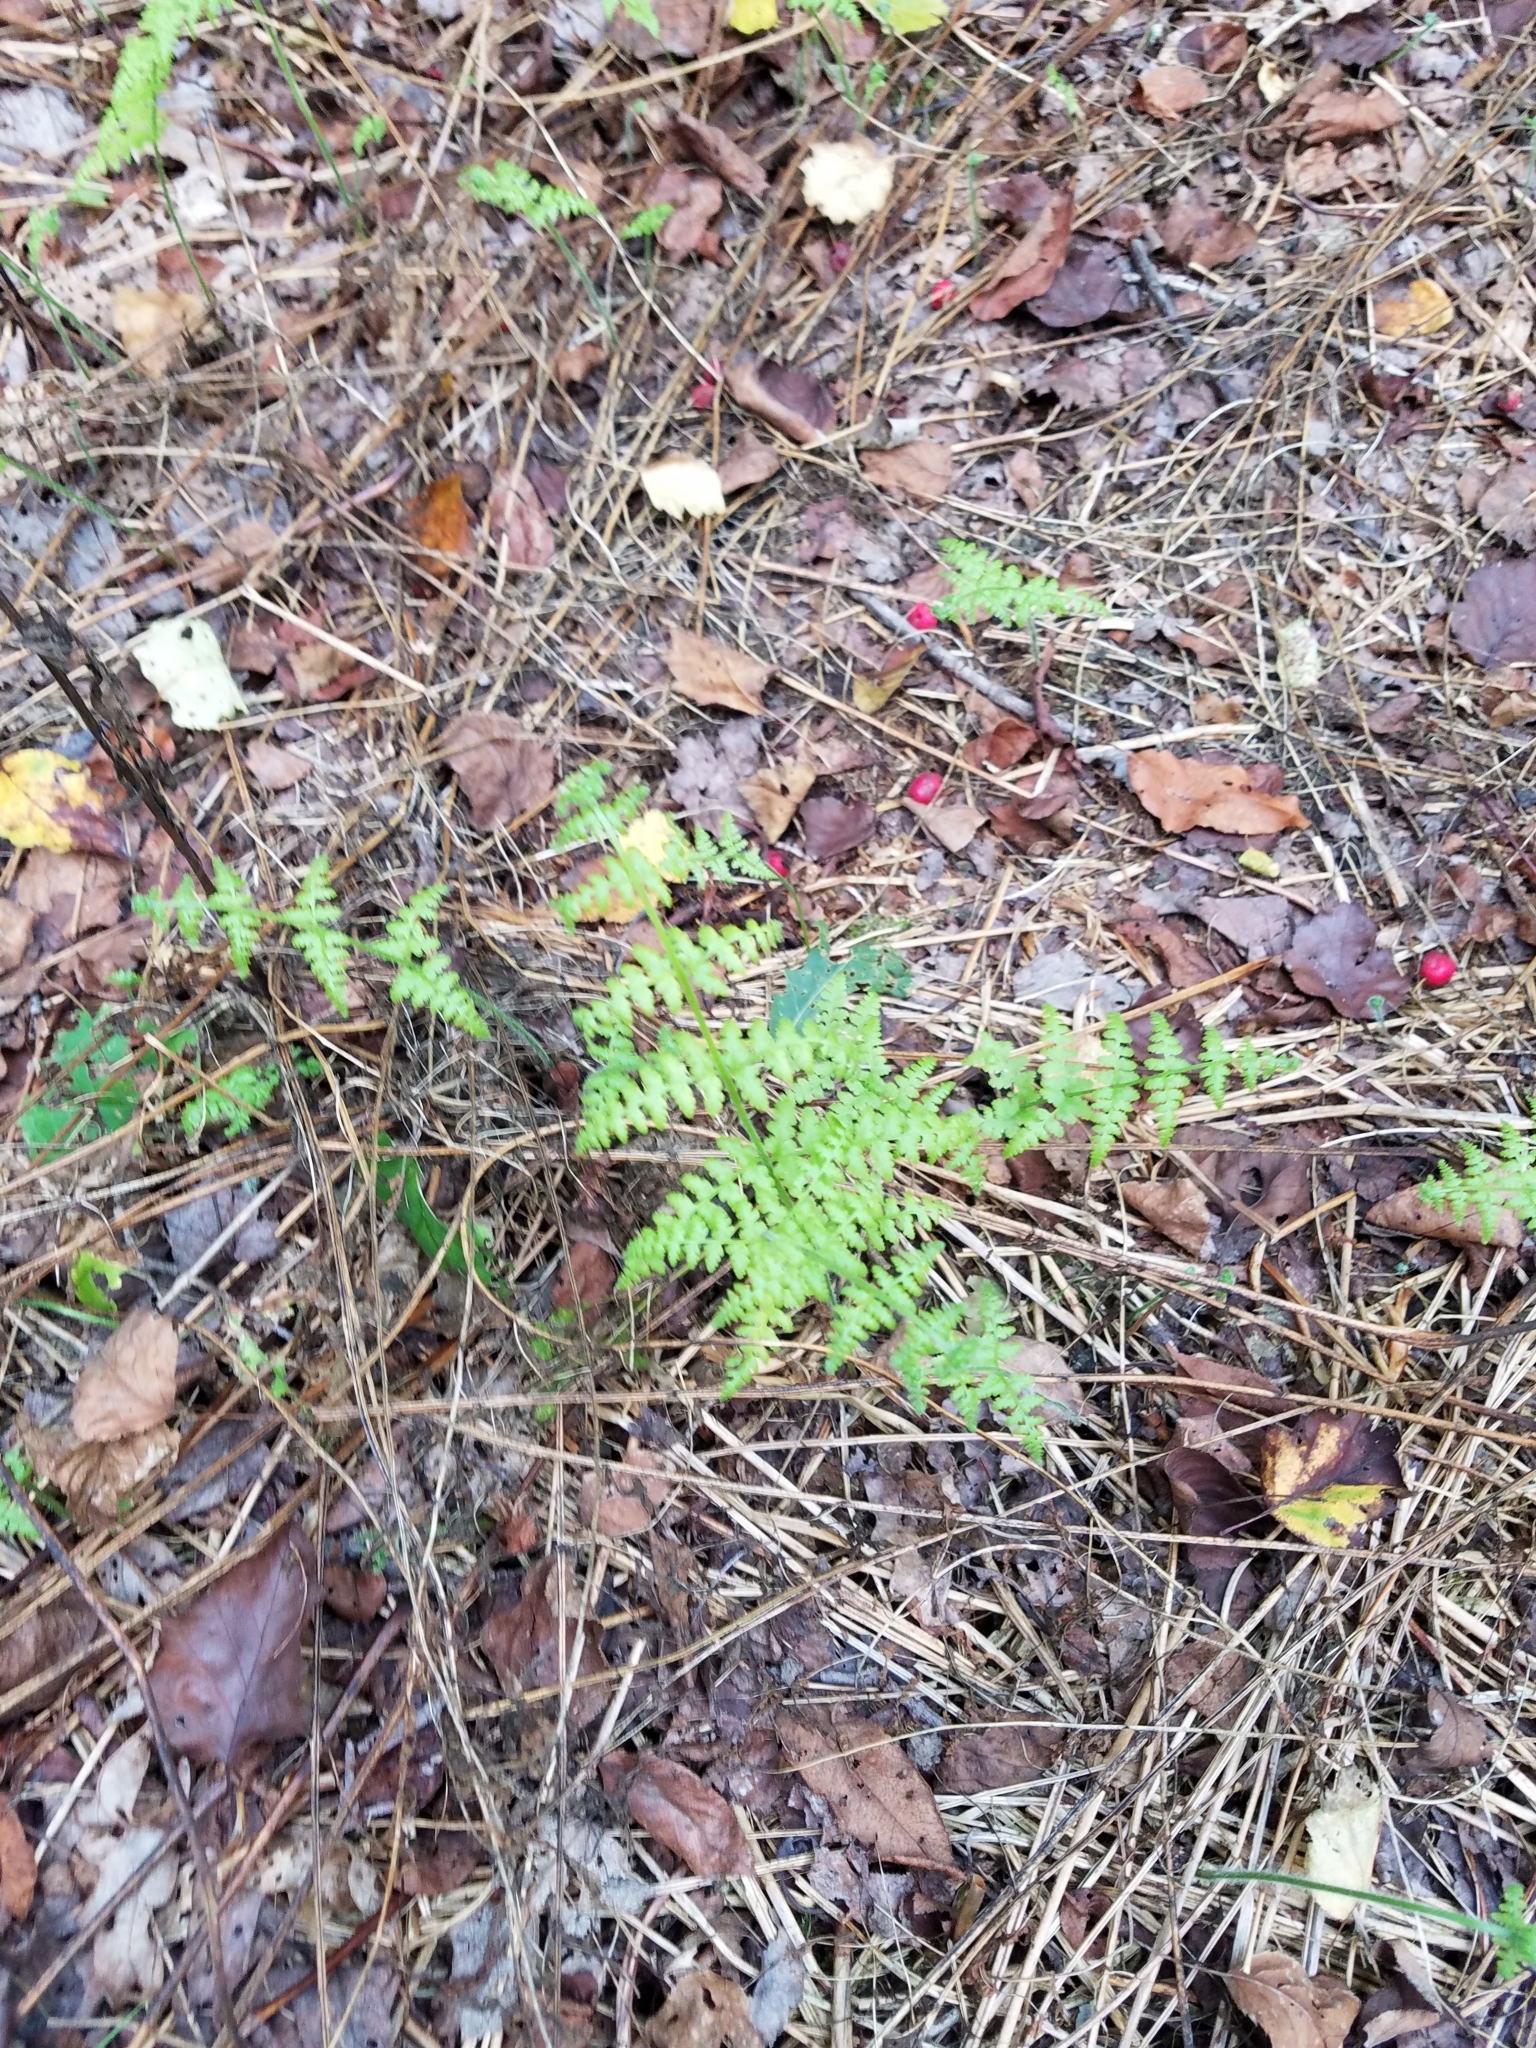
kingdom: Plantae
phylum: Tracheophyta
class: Polypodiopsida
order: Polypodiales
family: Dennstaedtiaceae
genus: Sitobolium
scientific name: Sitobolium punctilobum
